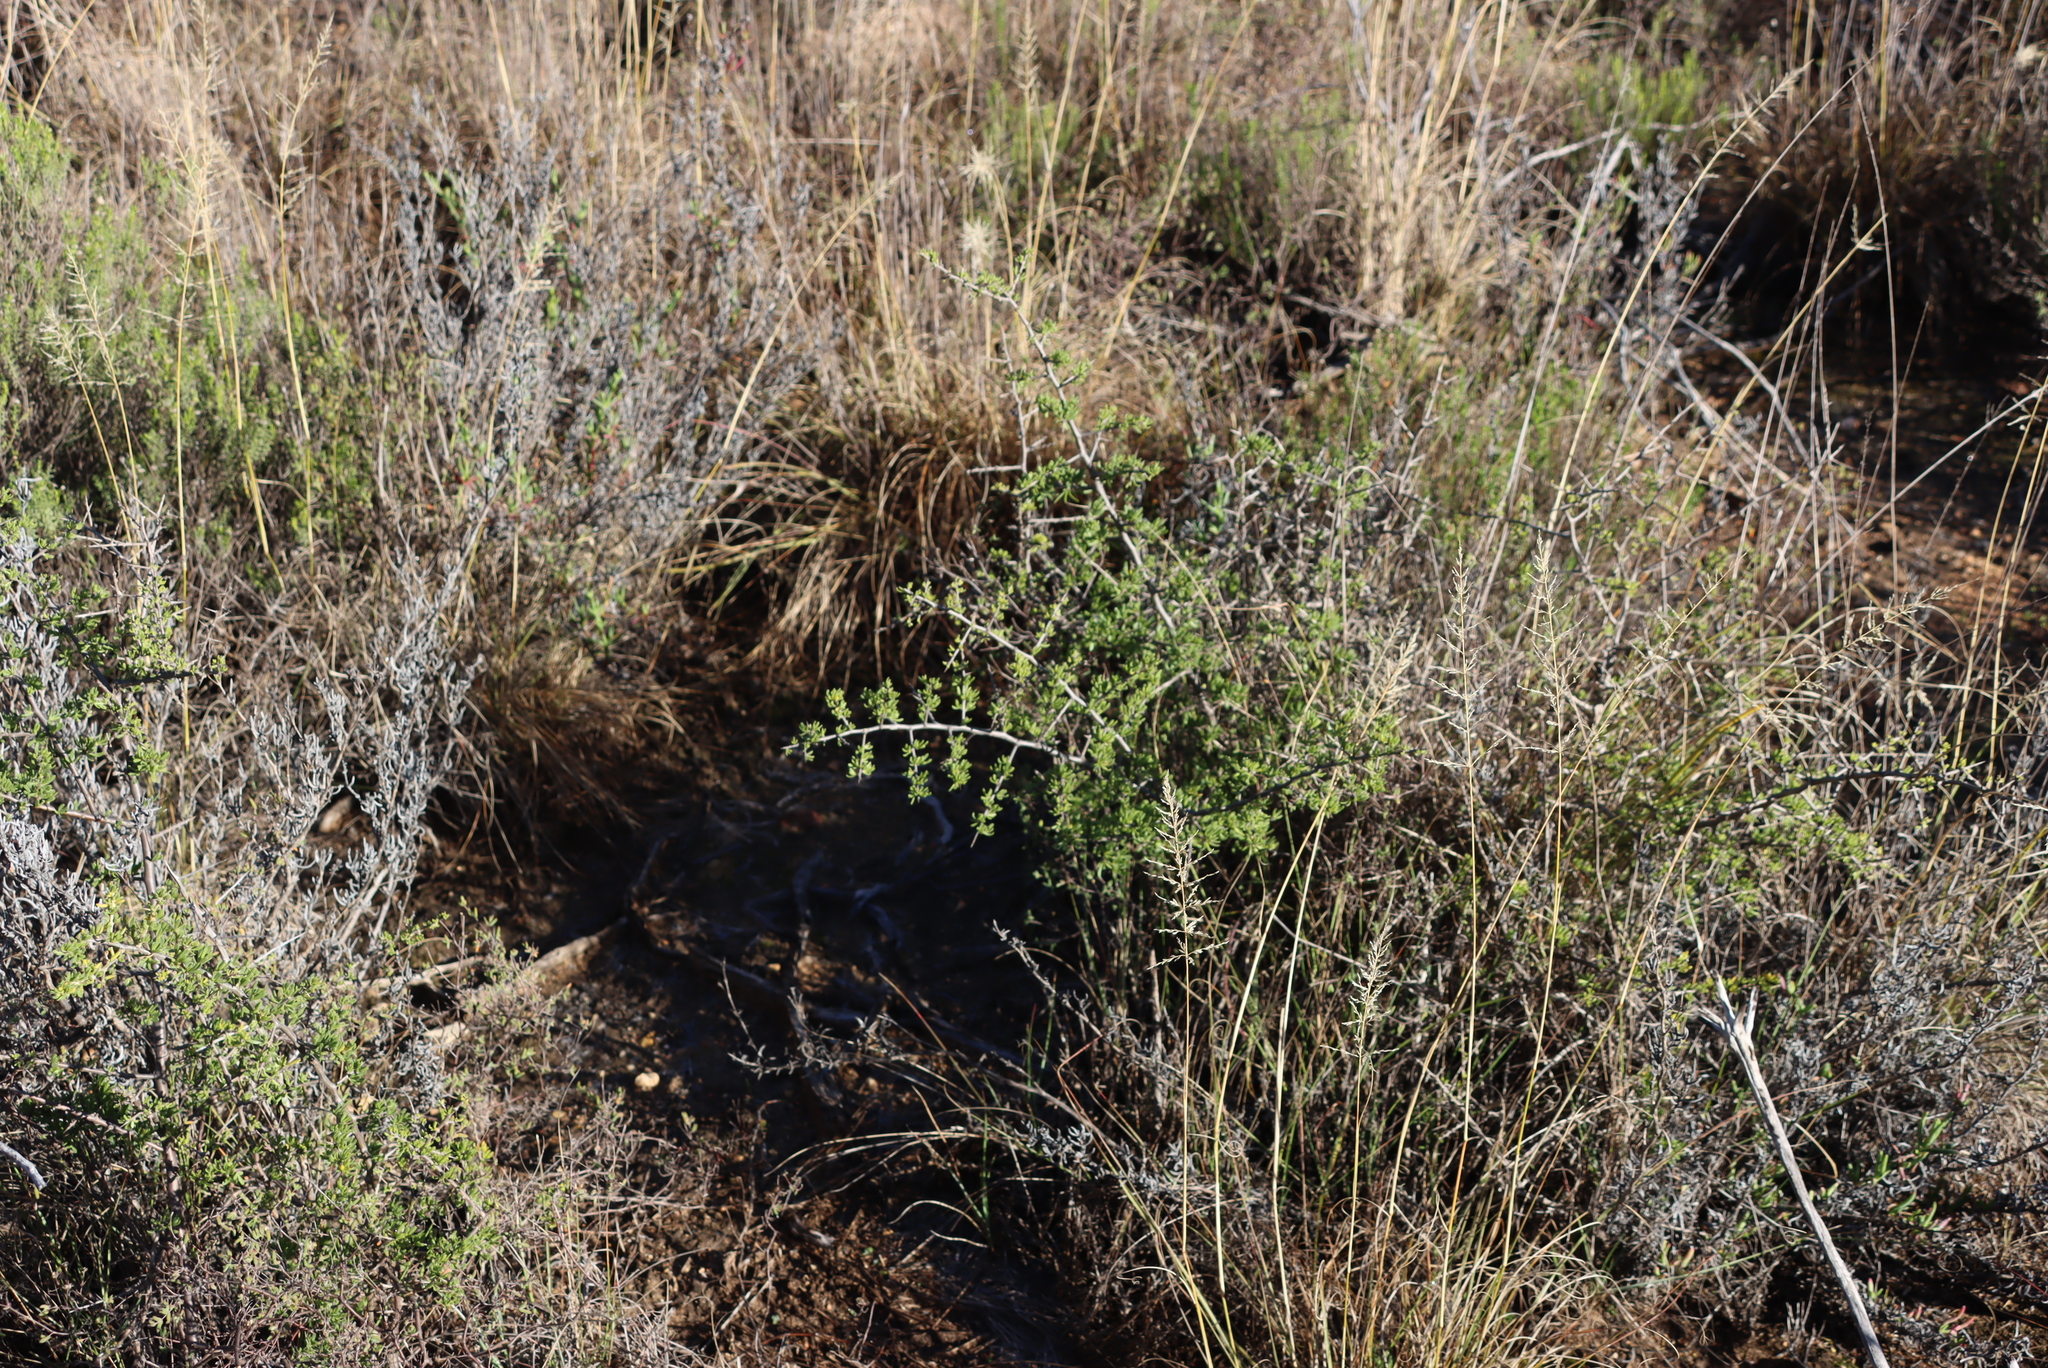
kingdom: Plantae
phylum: Tracheophyta
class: Magnoliopsida
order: Solanales
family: Solanaceae
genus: Lycium
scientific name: Lycium horridum
